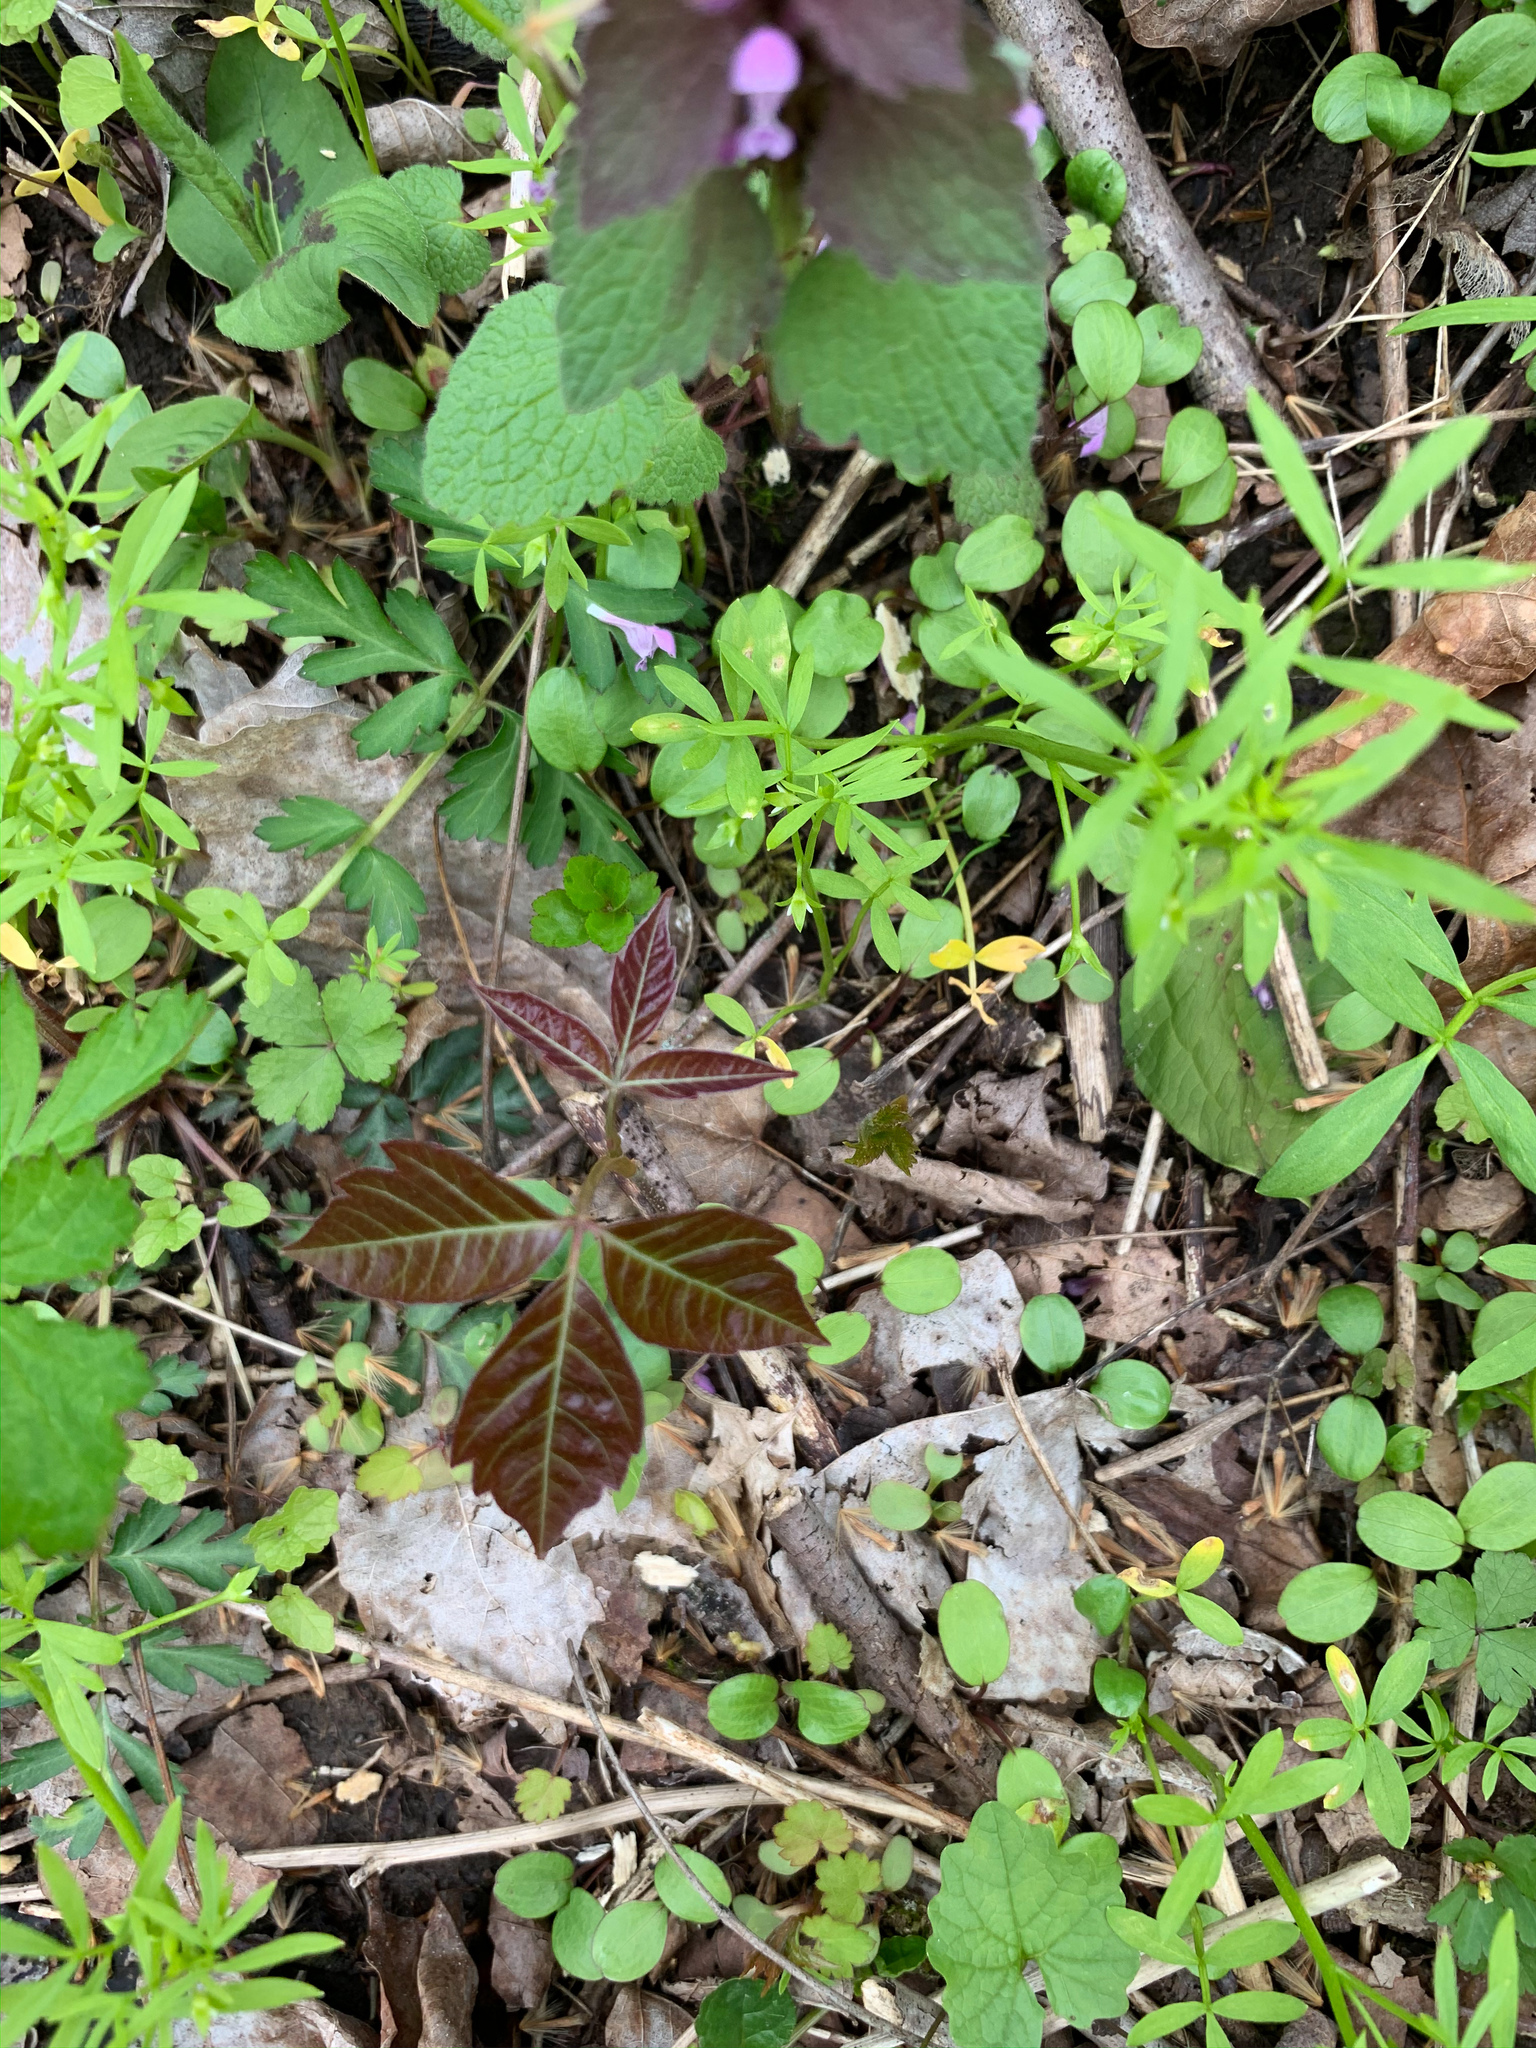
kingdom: Plantae
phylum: Tracheophyta
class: Magnoliopsida
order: Sapindales
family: Anacardiaceae
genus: Toxicodendron
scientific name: Toxicodendron radicans
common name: Poison ivy
